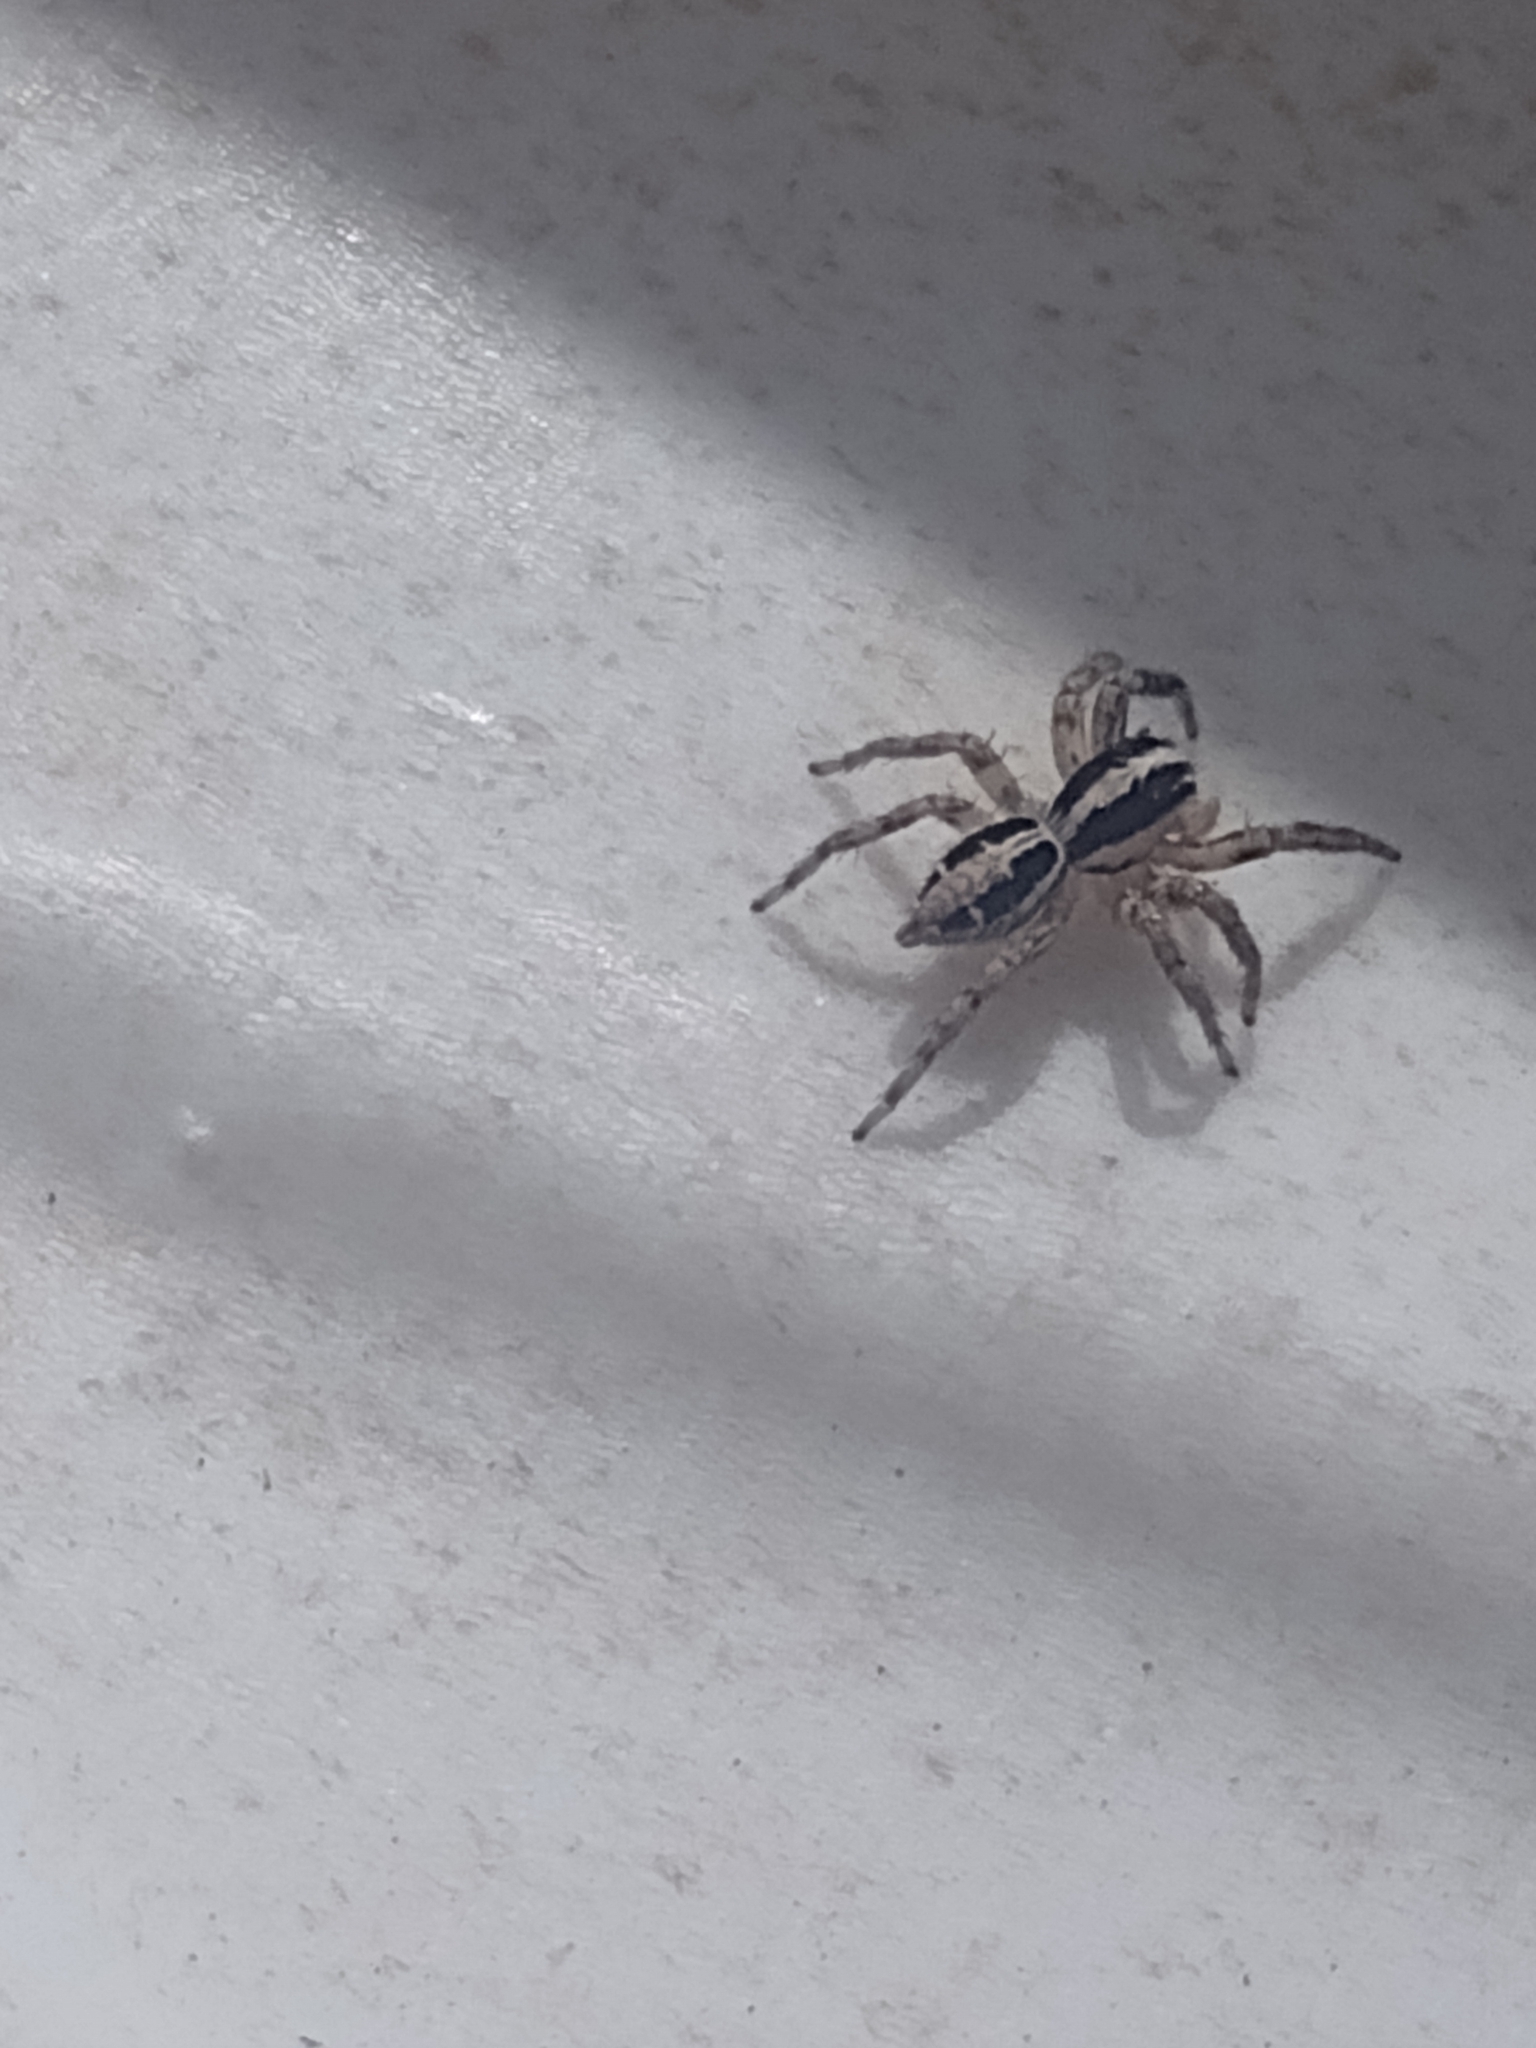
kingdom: Animalia
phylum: Arthropoda
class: Arachnida
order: Araneae
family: Salticidae
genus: Plexippus
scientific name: Plexippus paykulli
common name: Pantropical jumper
